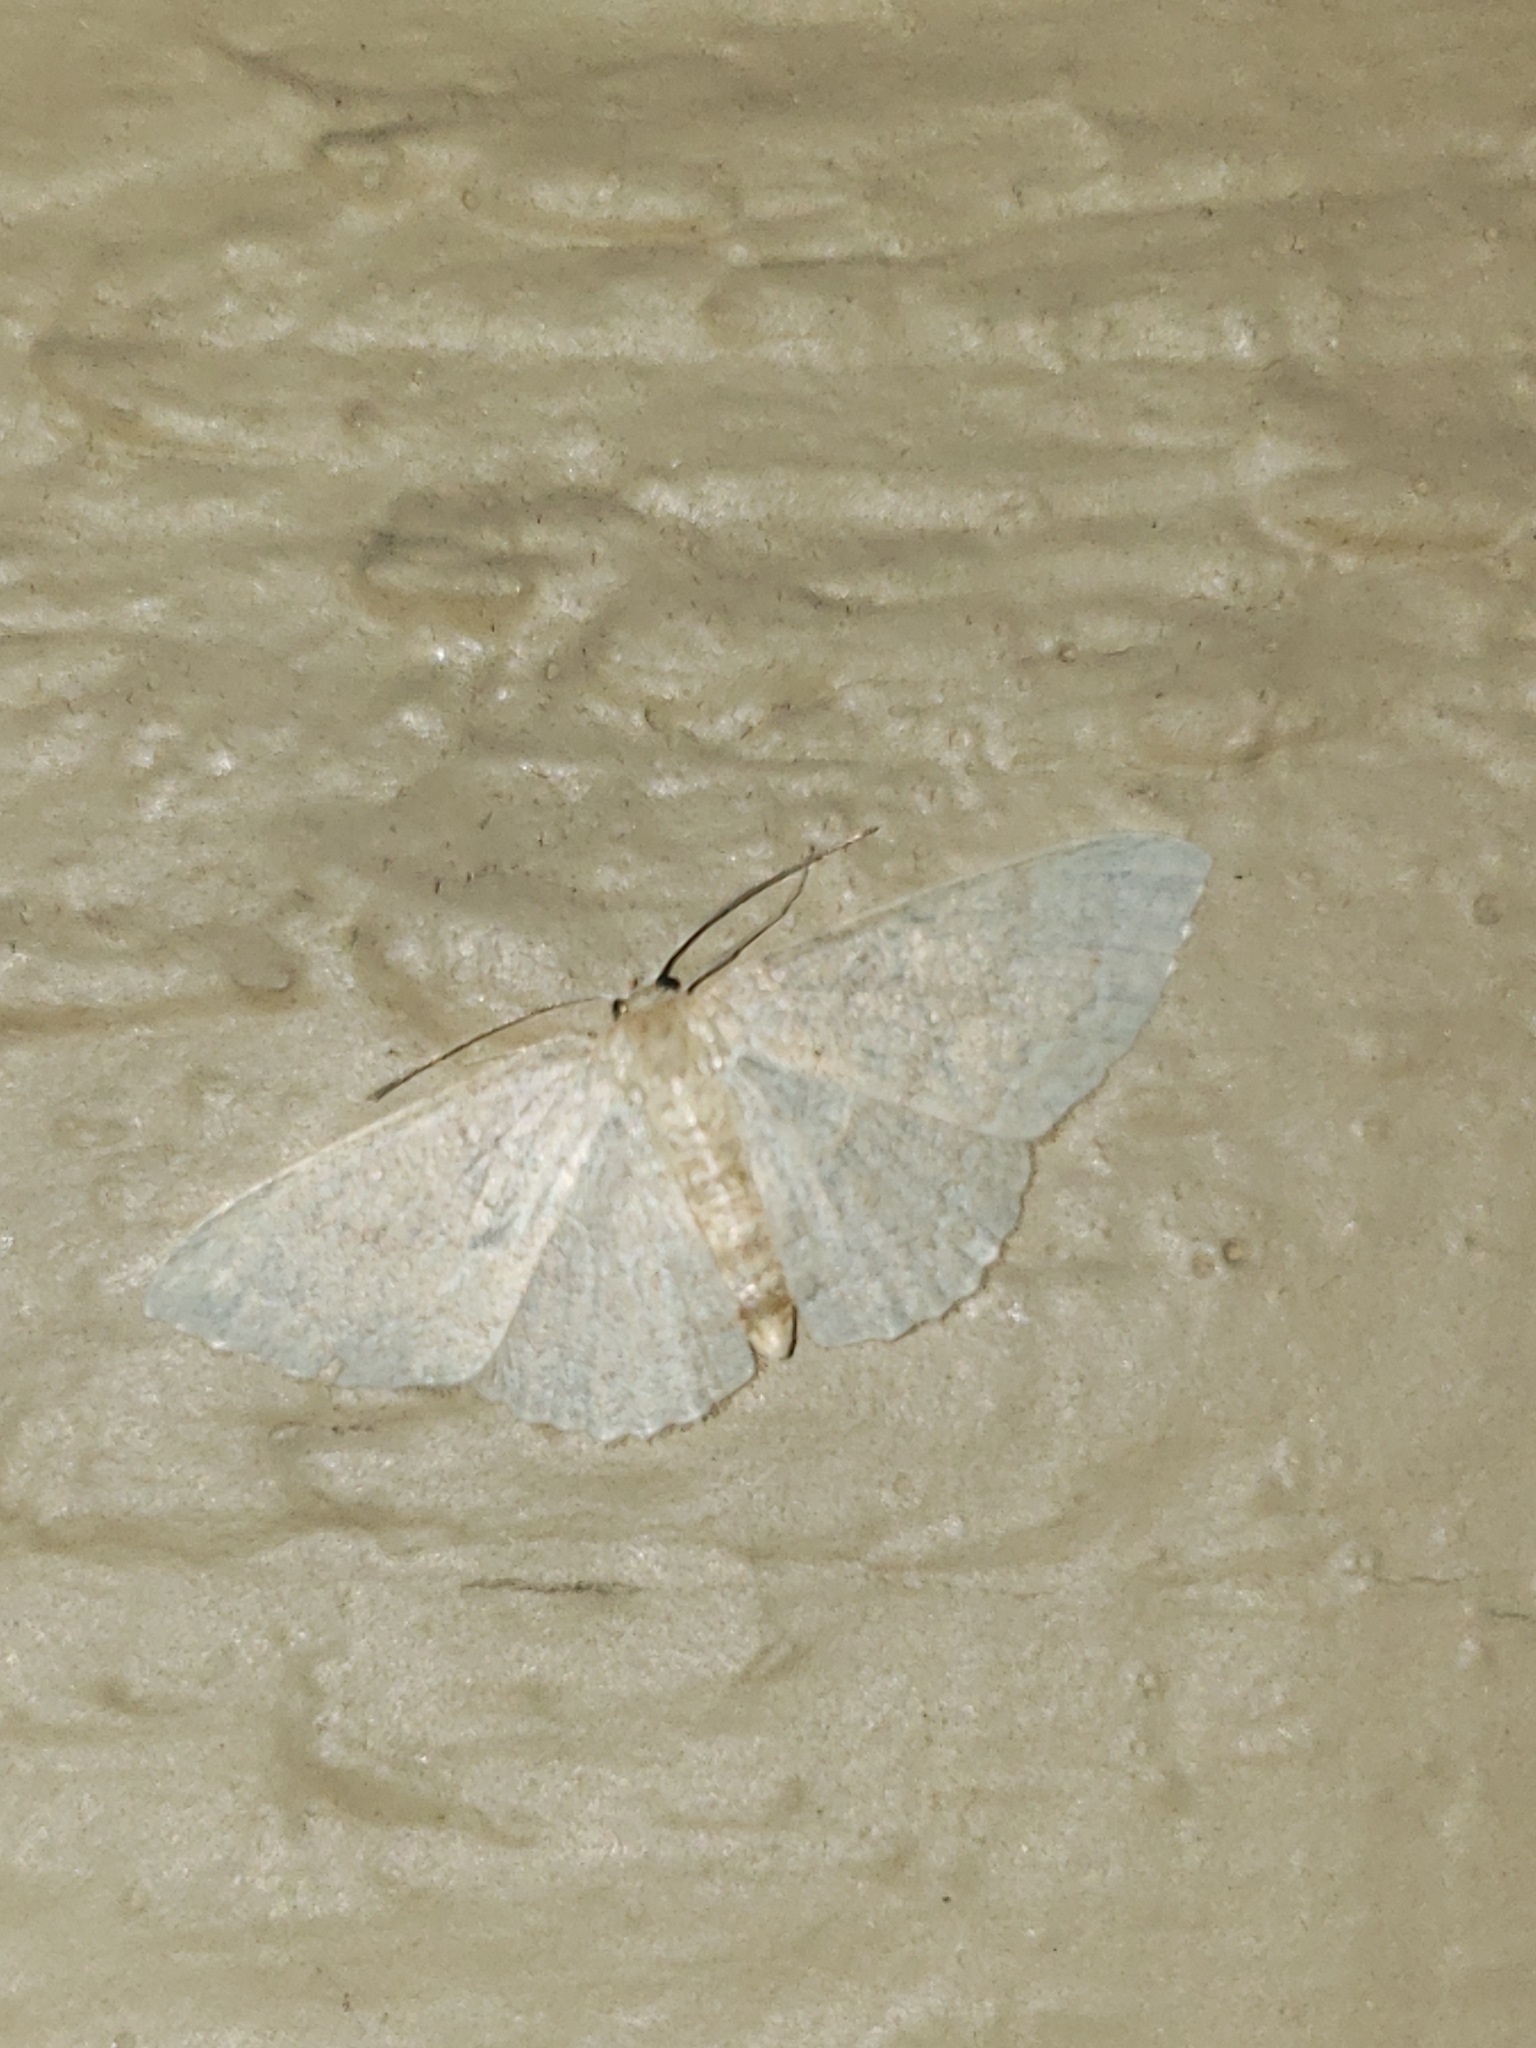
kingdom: Animalia
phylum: Arthropoda
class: Insecta
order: Lepidoptera
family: Geometridae
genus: Pleuroprucha
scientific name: Pleuroprucha insulsaria
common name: Common tan wave
